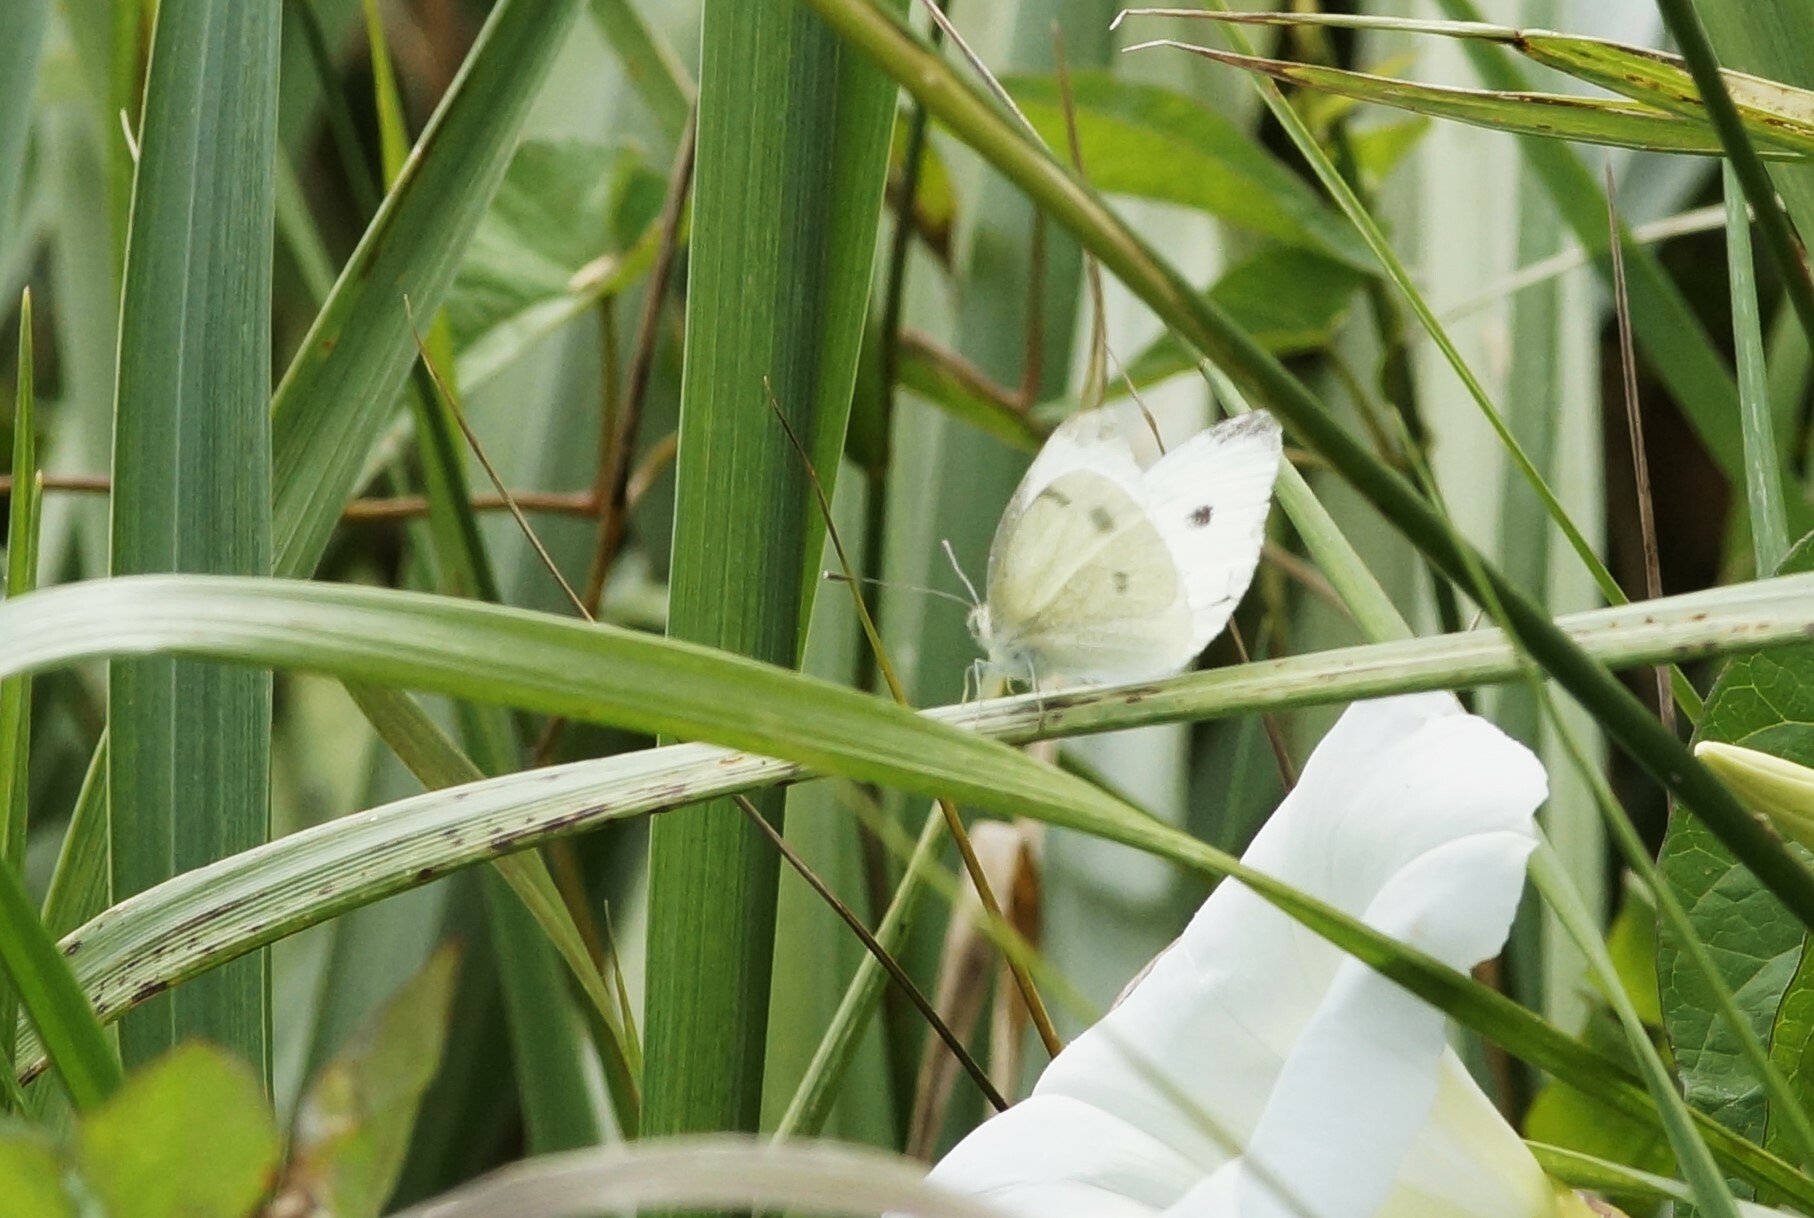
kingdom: Animalia
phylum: Arthropoda
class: Insecta
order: Lepidoptera
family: Pieridae
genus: Pieris
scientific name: Pieris rapae
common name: Small white
